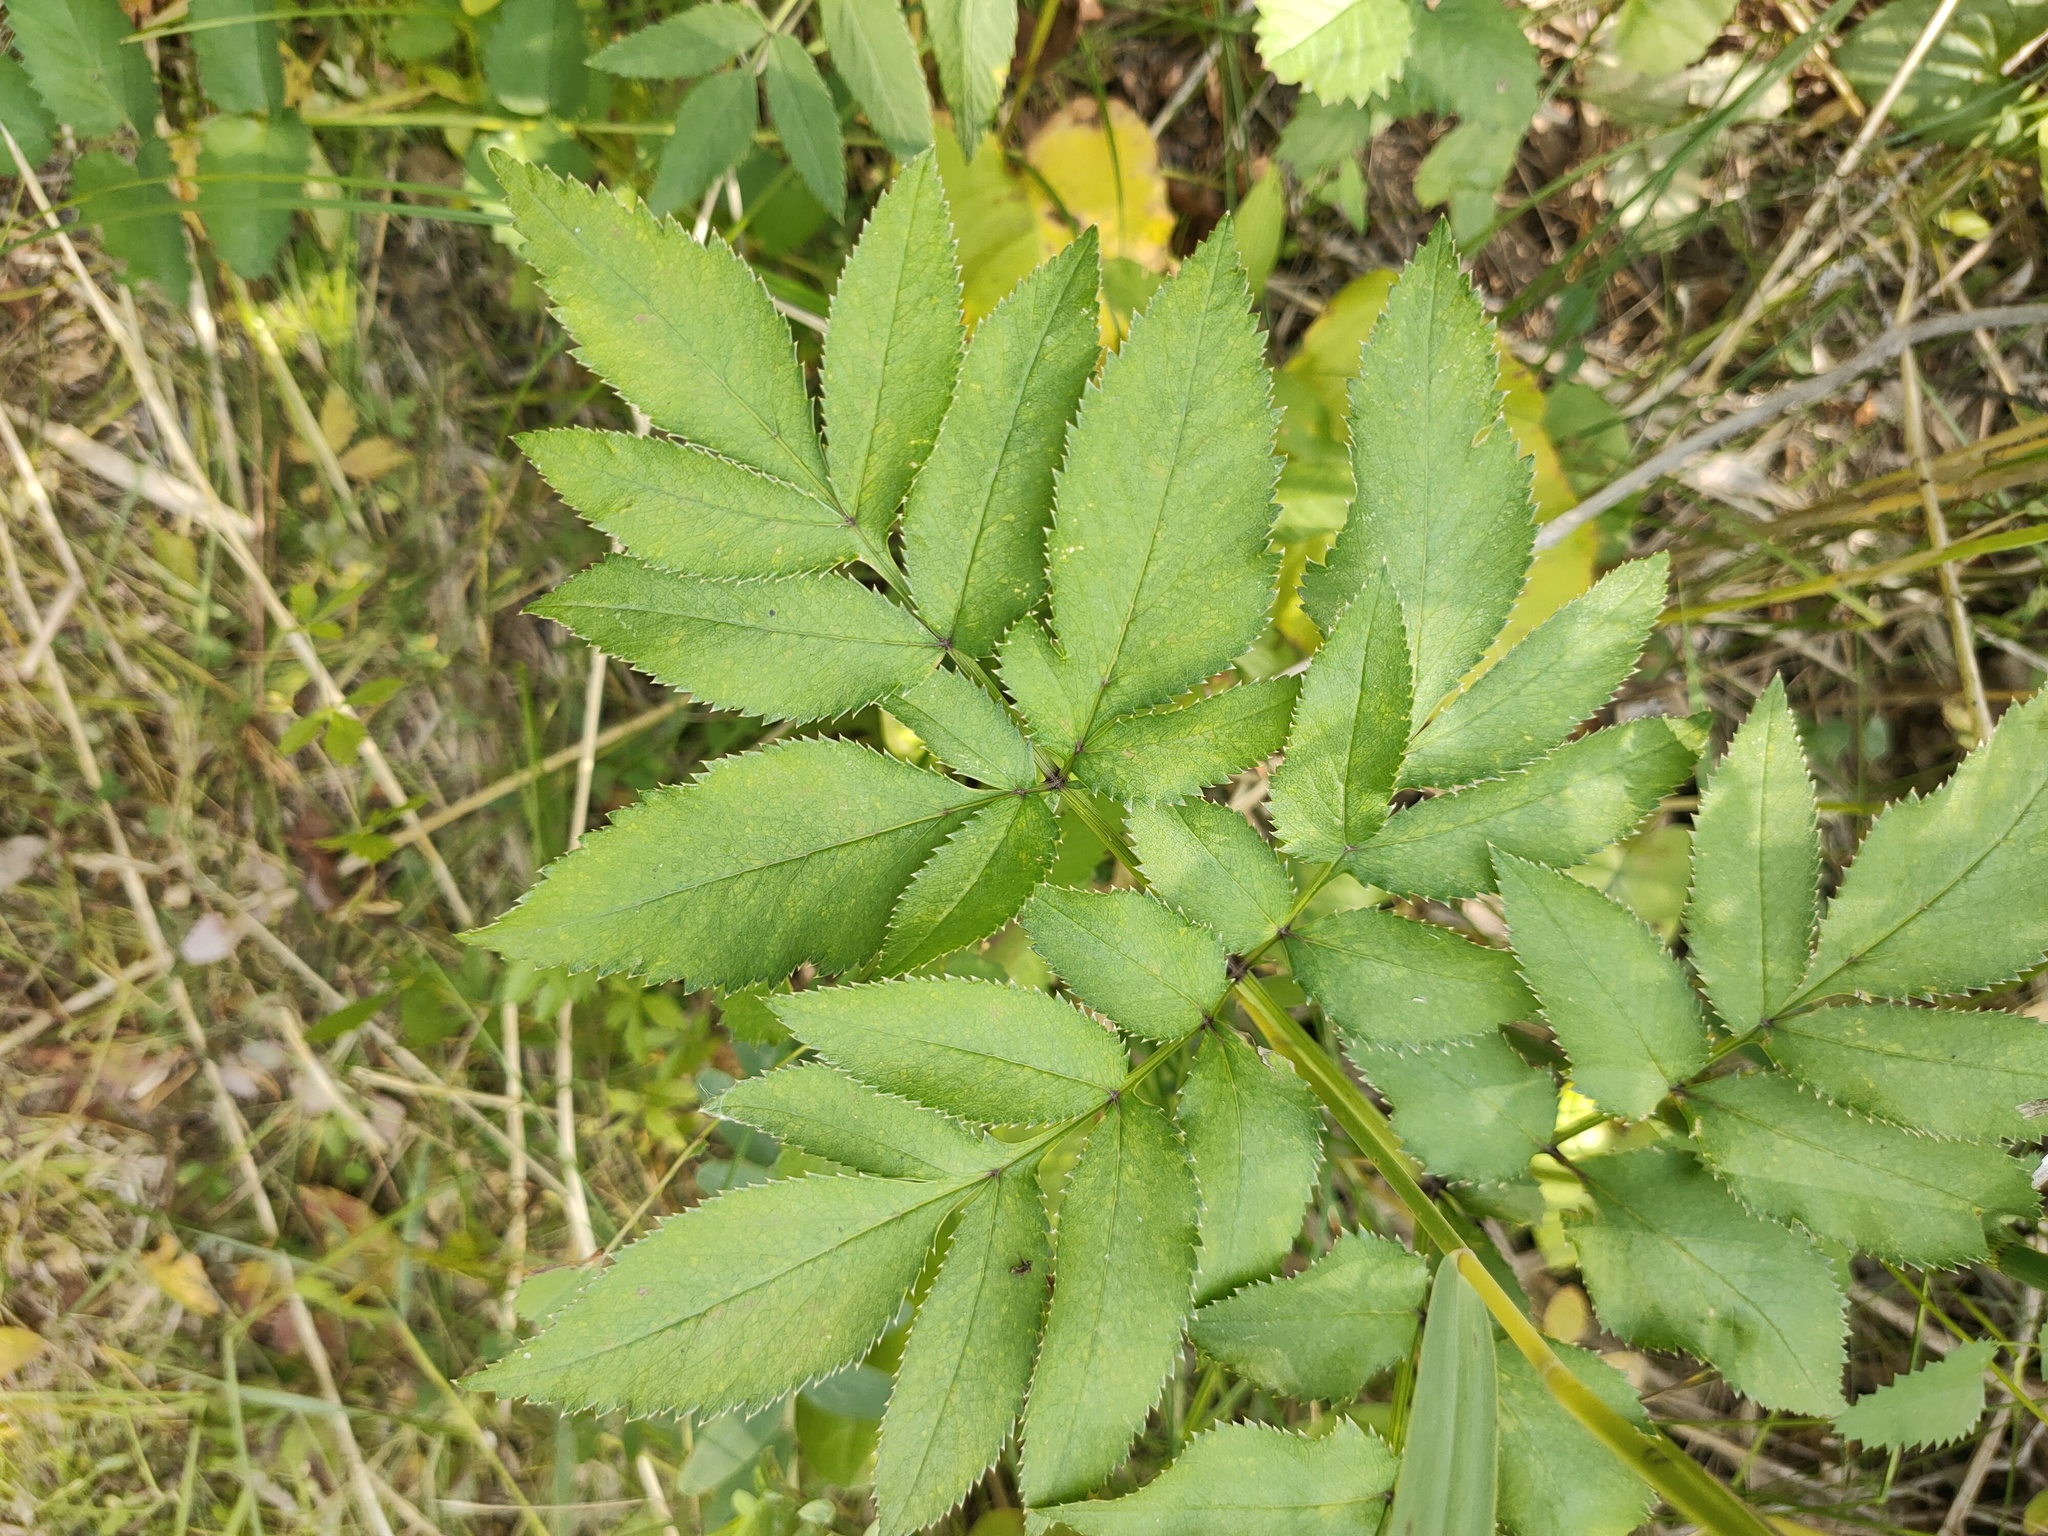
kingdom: Plantae
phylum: Tracheophyta
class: Magnoliopsida
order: Apiales
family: Apiaceae
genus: Angelica
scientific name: Angelica sylvestris
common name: Wild angelica
